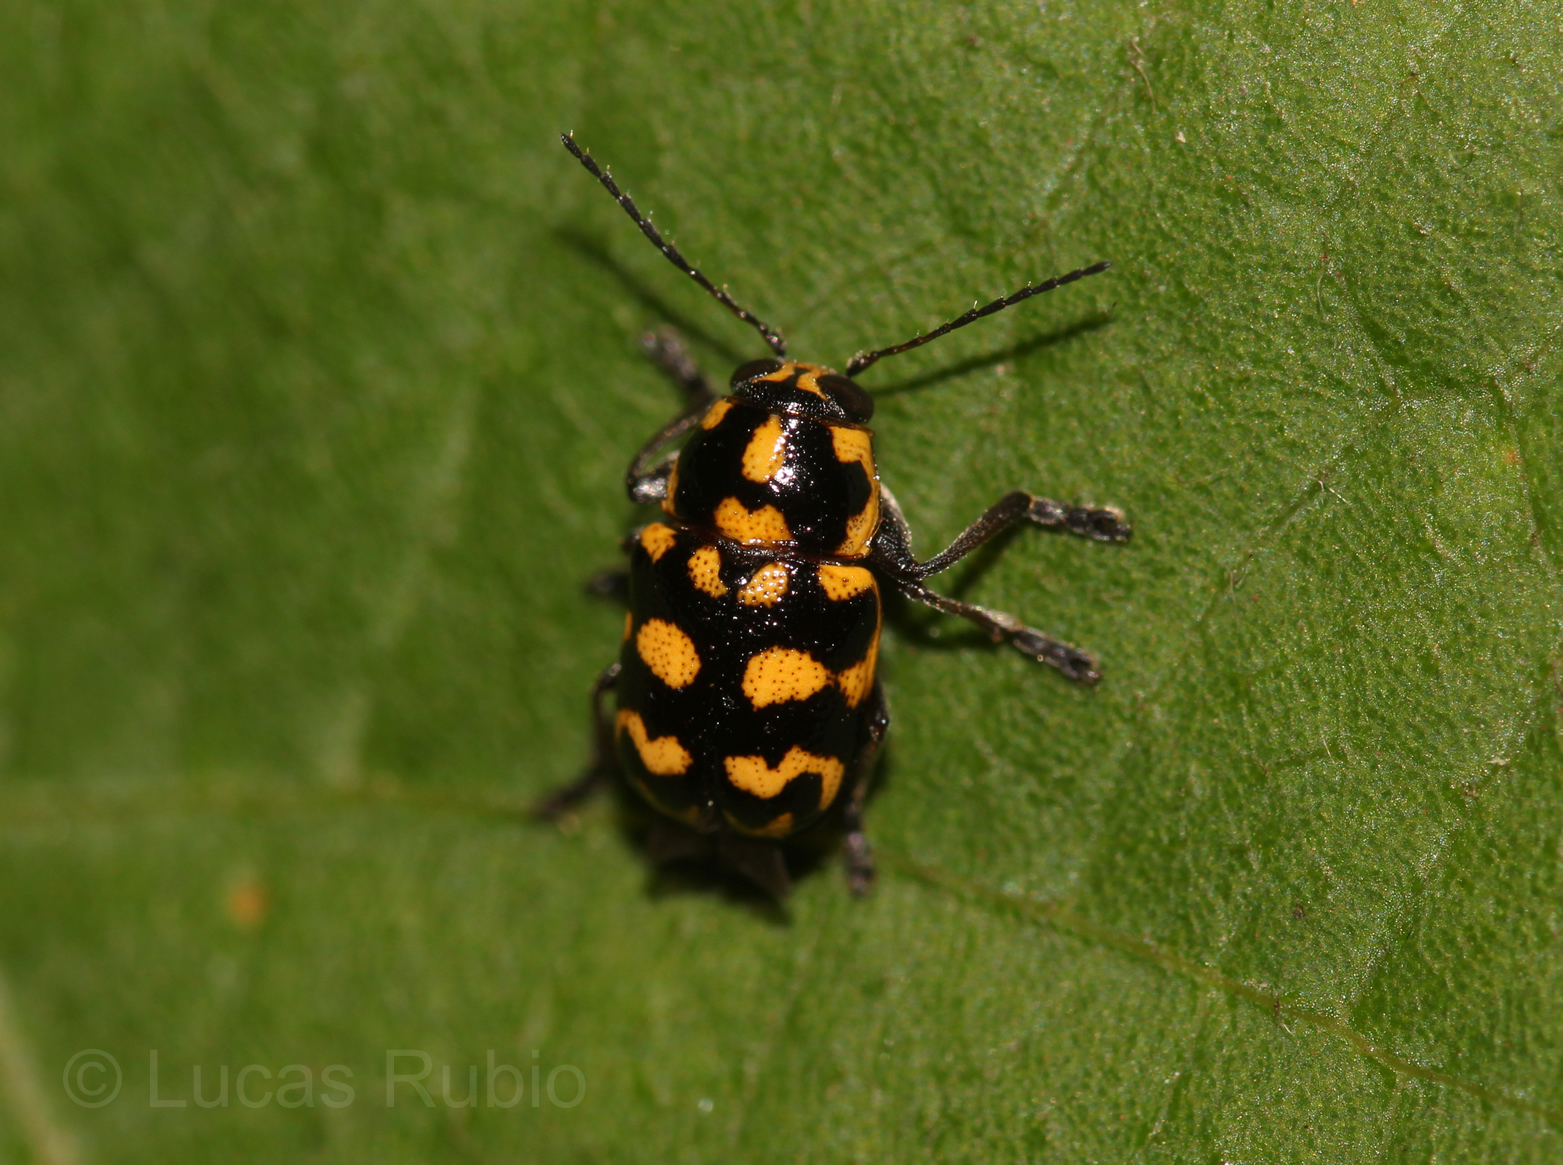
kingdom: Animalia
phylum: Arthropoda
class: Insecta
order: Coleoptera
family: Chrysomelidae
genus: Metallactus
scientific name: Metallactus madefactus
